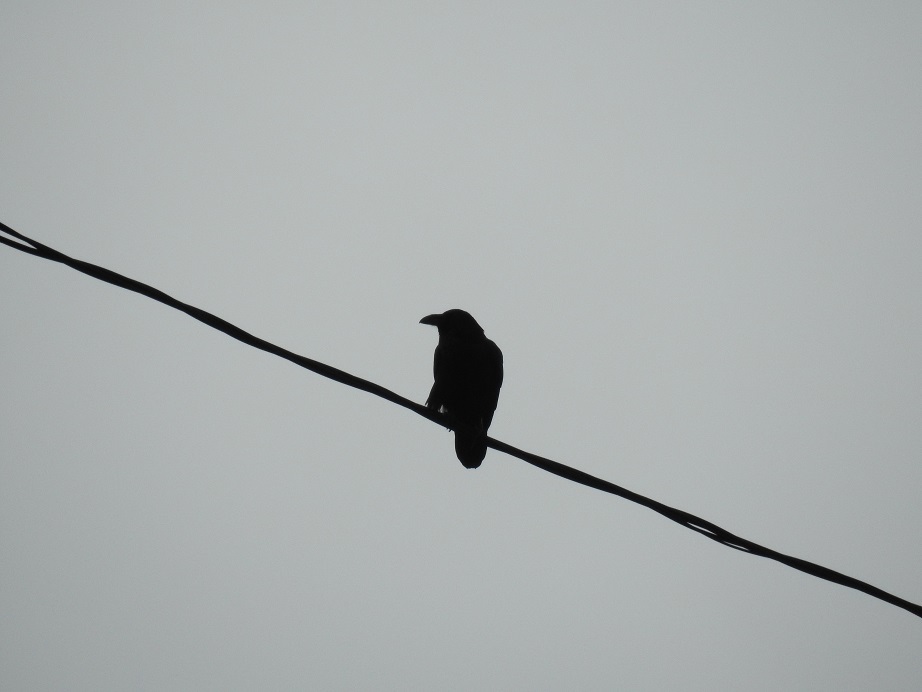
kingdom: Animalia
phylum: Chordata
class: Aves
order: Passeriformes
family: Corvidae
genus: Corvus
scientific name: Corvus corax
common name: Common raven
